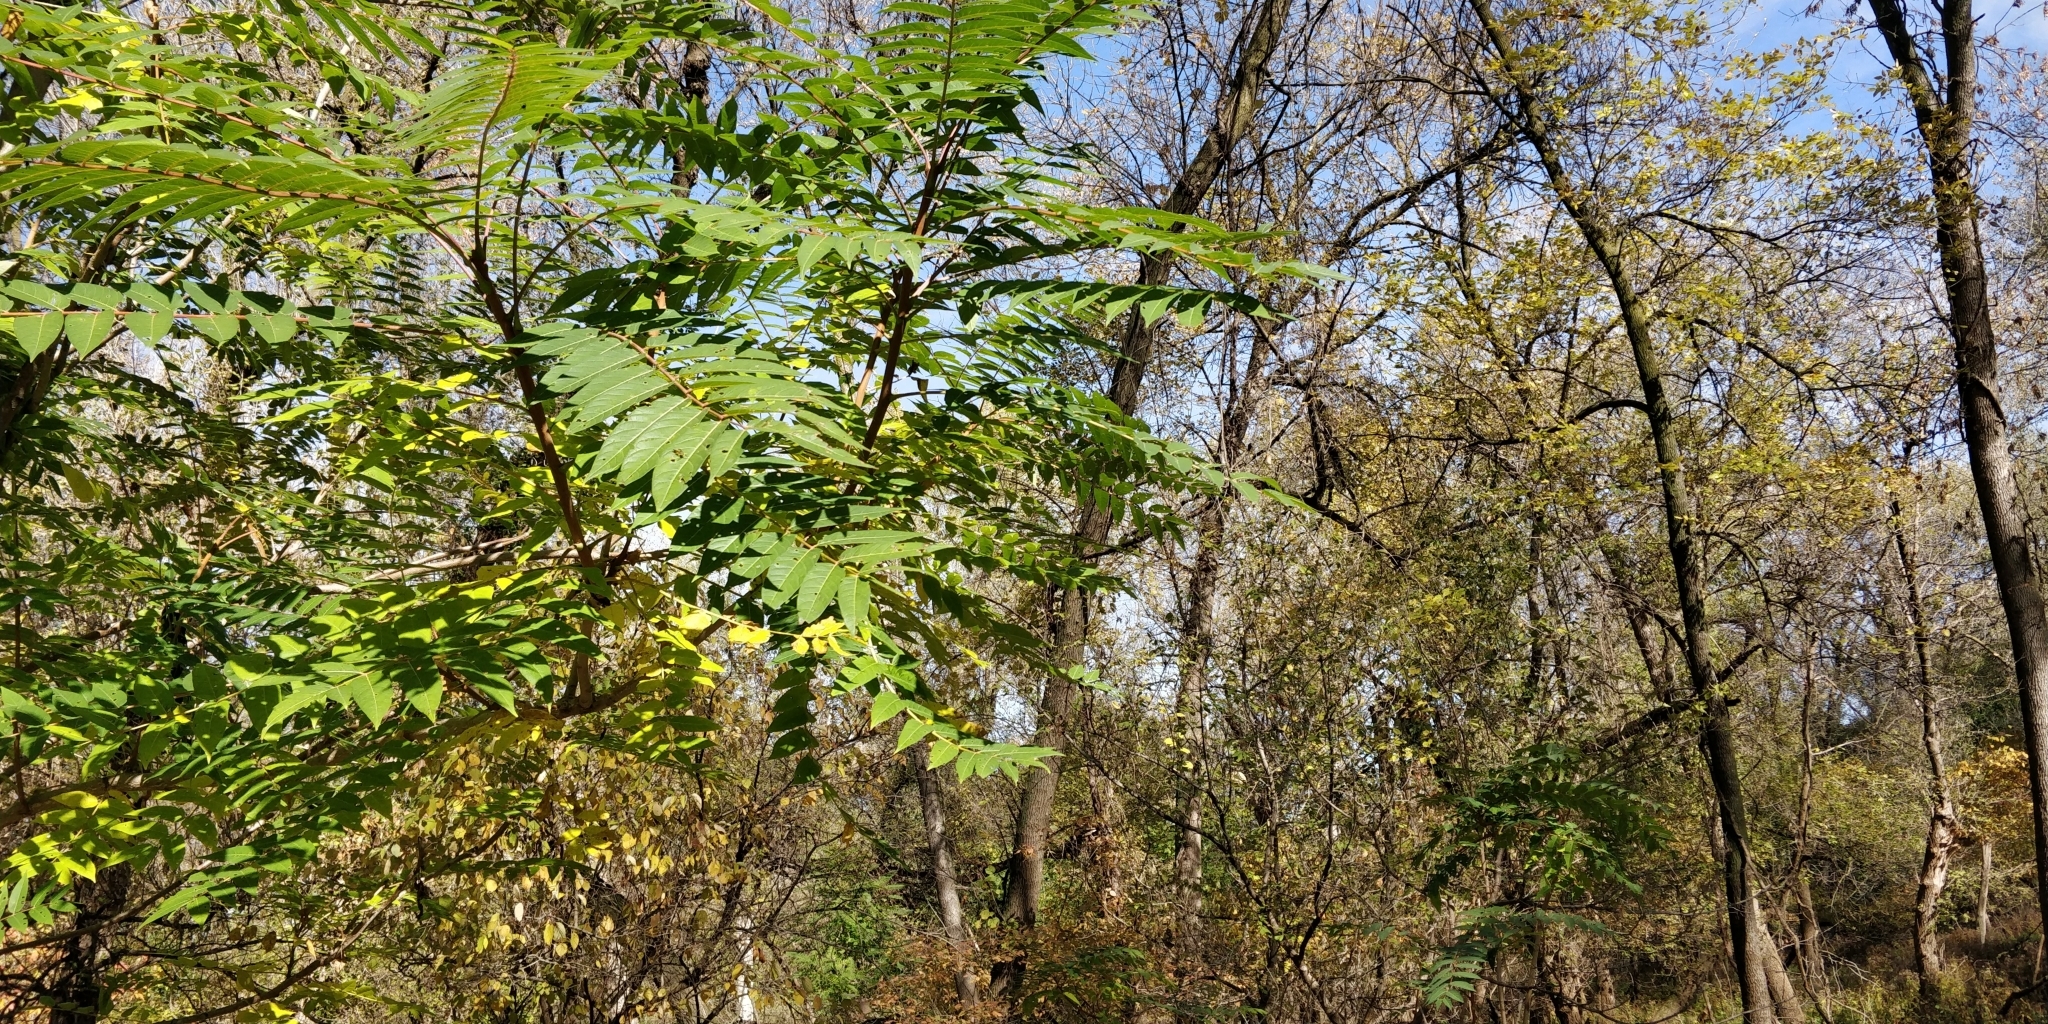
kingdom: Plantae
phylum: Tracheophyta
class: Magnoliopsida
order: Sapindales
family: Simaroubaceae
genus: Ailanthus
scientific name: Ailanthus altissima
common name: Tree-of-heaven
